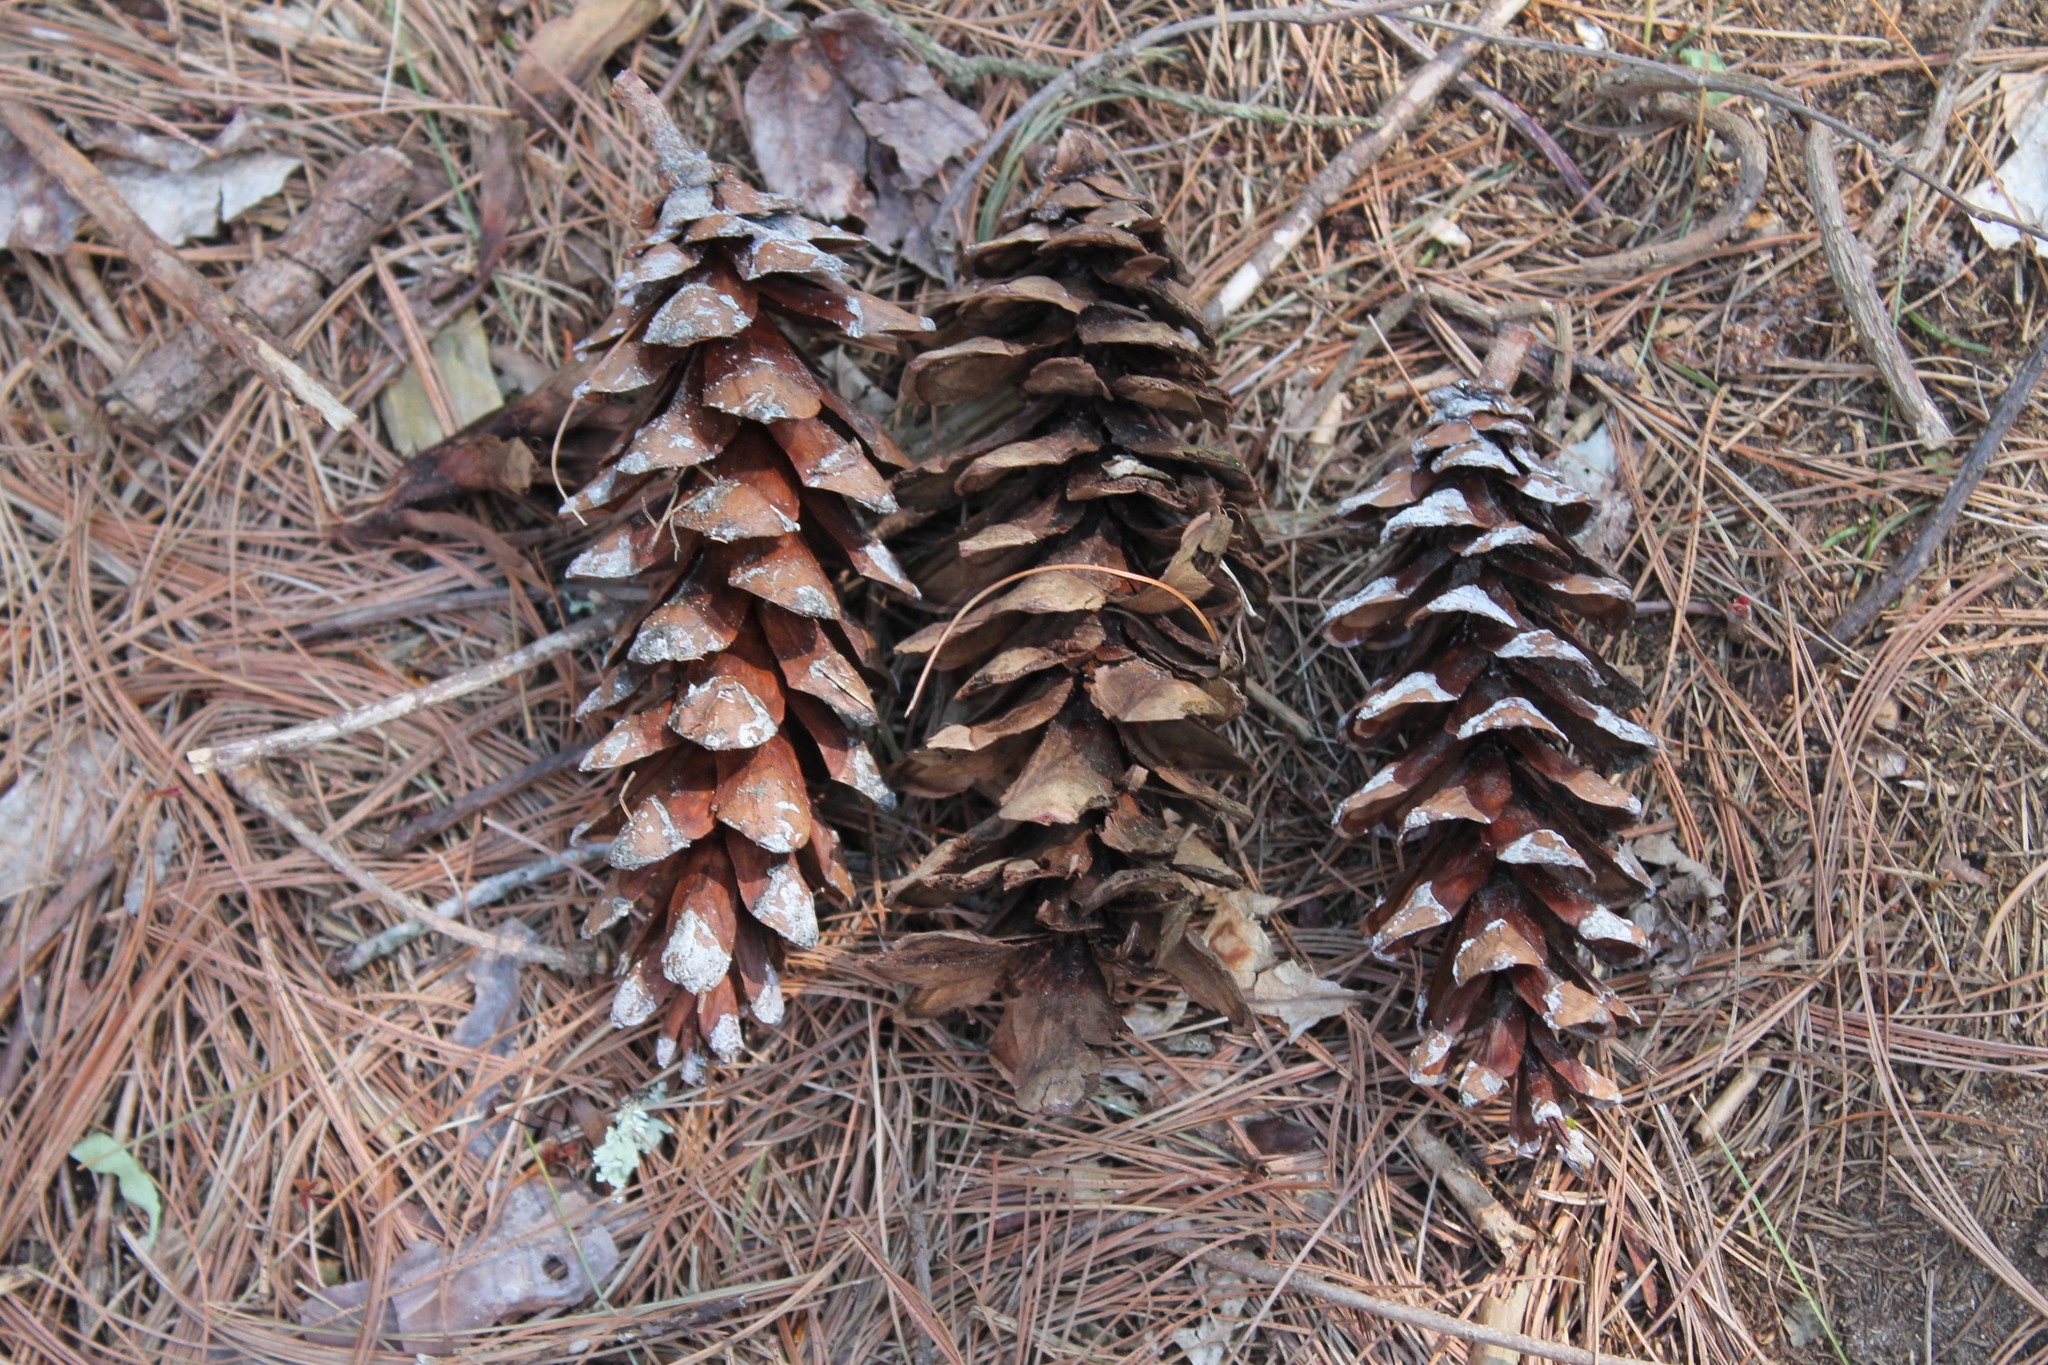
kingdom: Plantae
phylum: Tracheophyta
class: Pinopsida
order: Pinales
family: Pinaceae
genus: Pinus
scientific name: Pinus strobus
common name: Weymouth pine
